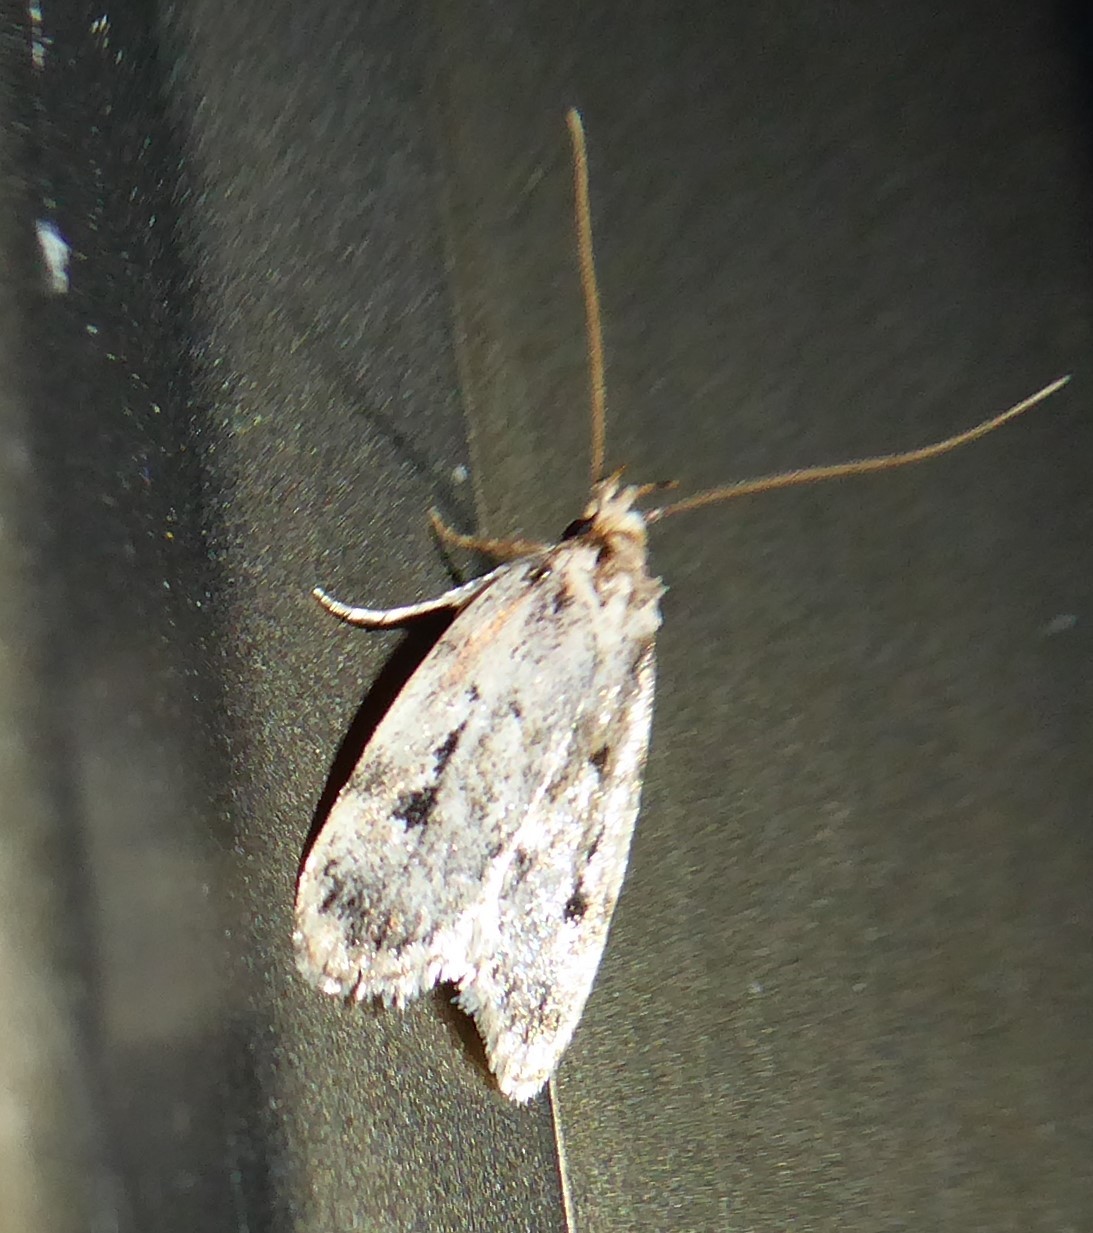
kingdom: Animalia
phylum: Arthropoda
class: Insecta
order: Lepidoptera
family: Oecophoridae
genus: Barea
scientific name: Barea exarcha
